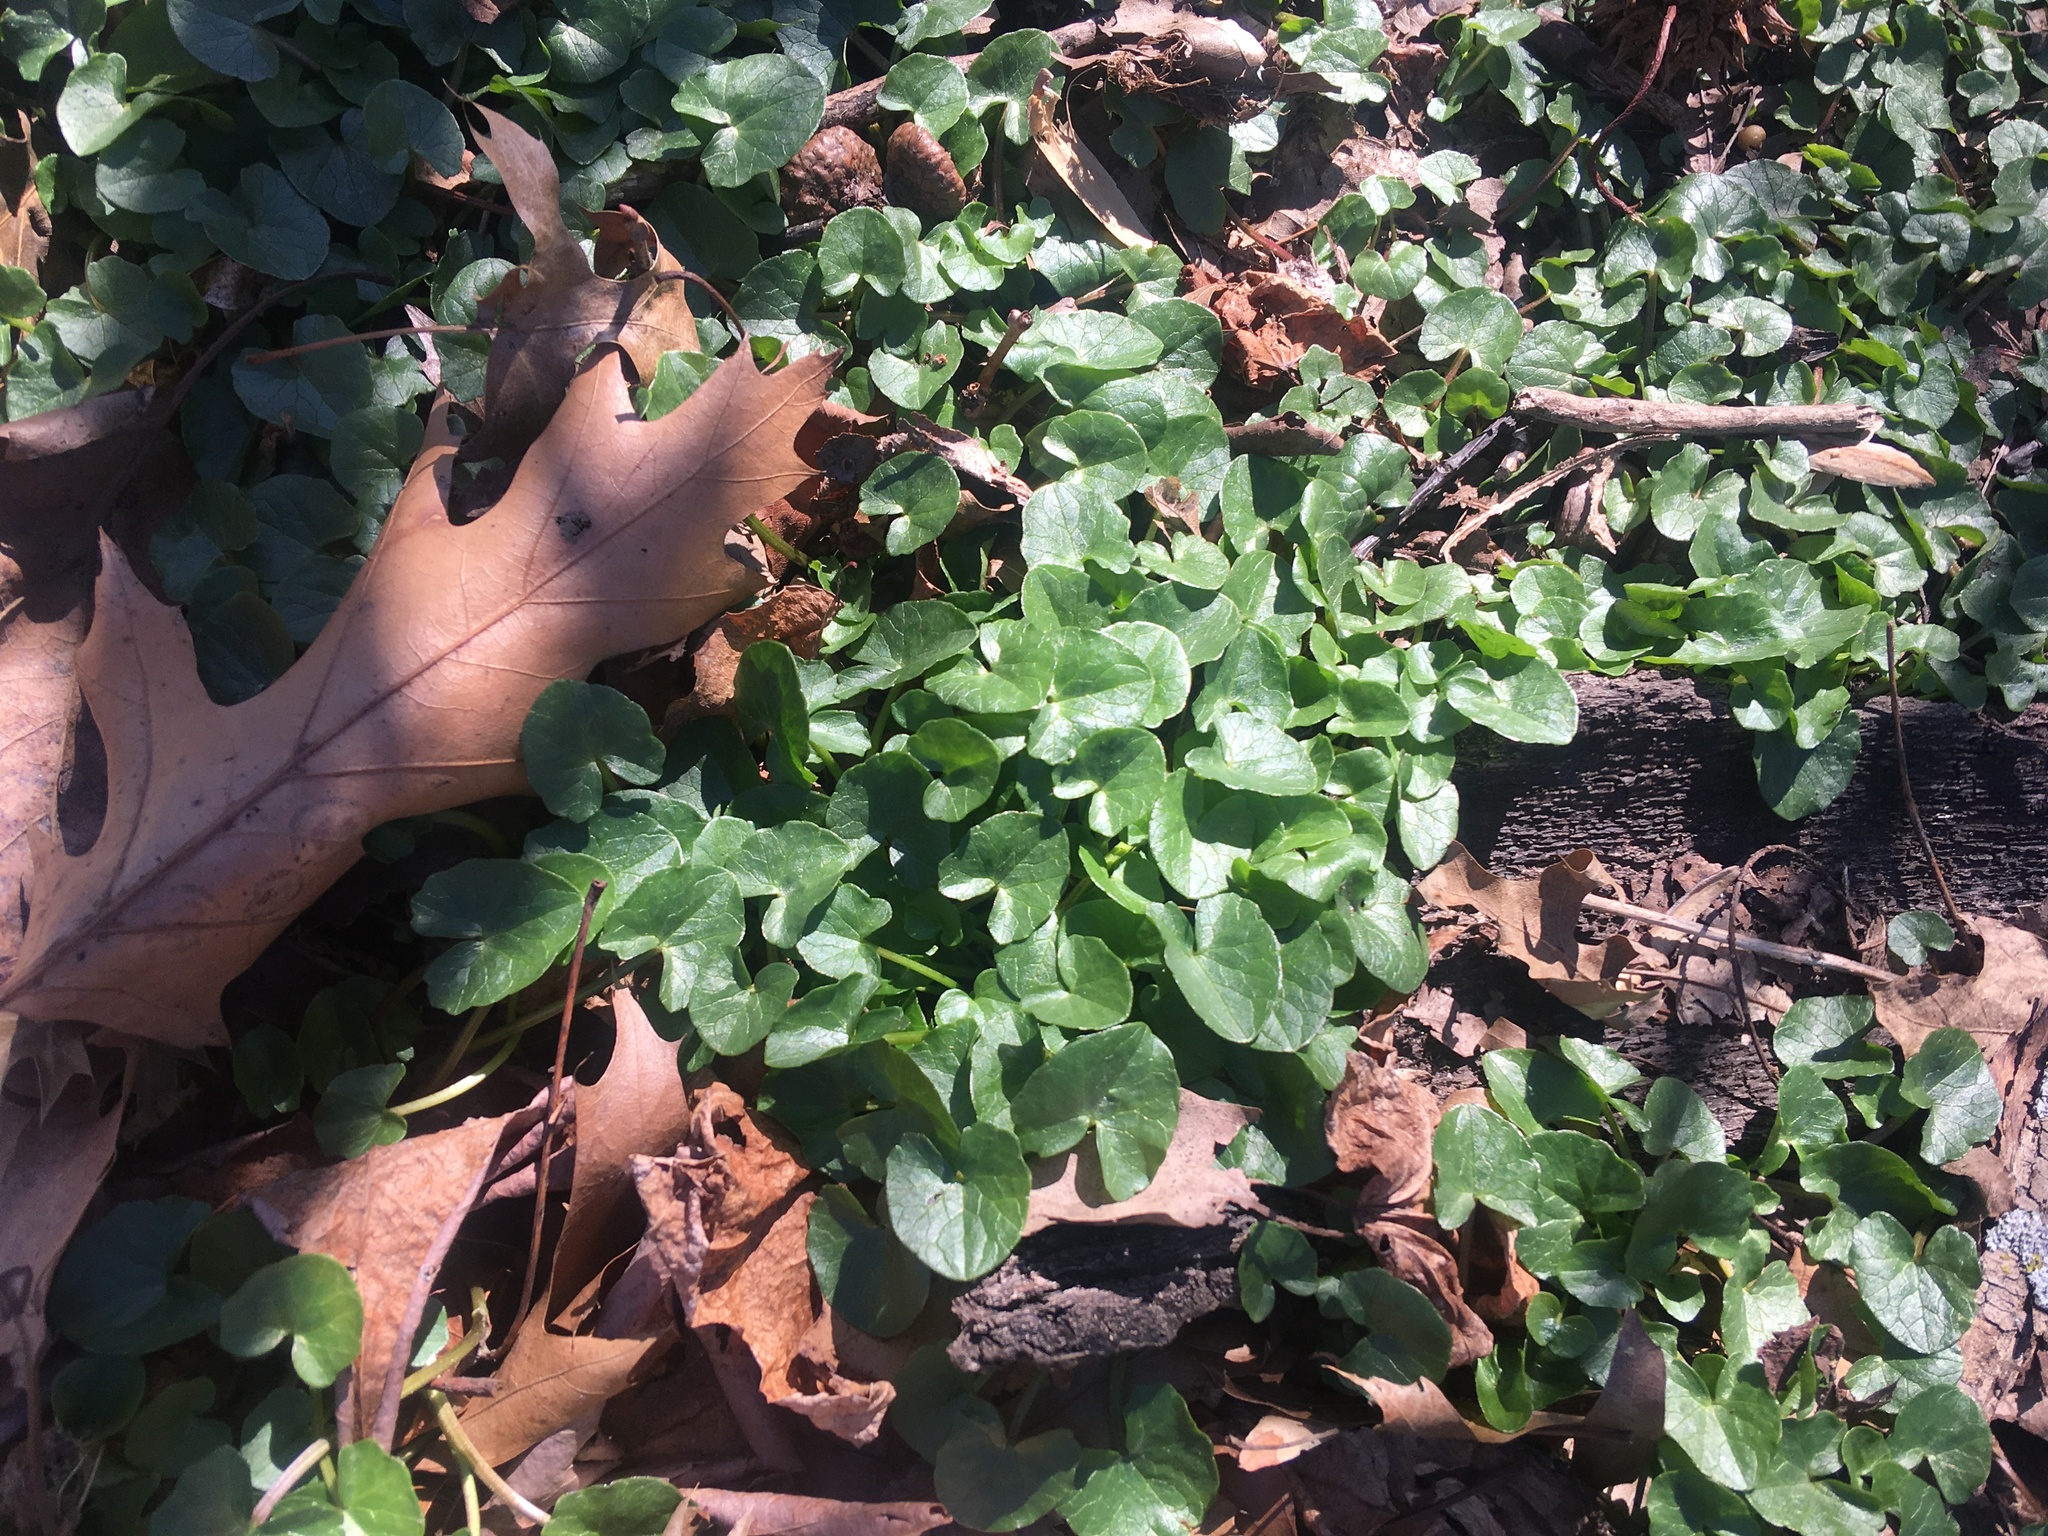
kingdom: Plantae
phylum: Tracheophyta
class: Magnoliopsida
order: Ranunculales
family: Ranunculaceae
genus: Ficaria
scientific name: Ficaria verna
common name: Lesser celandine
